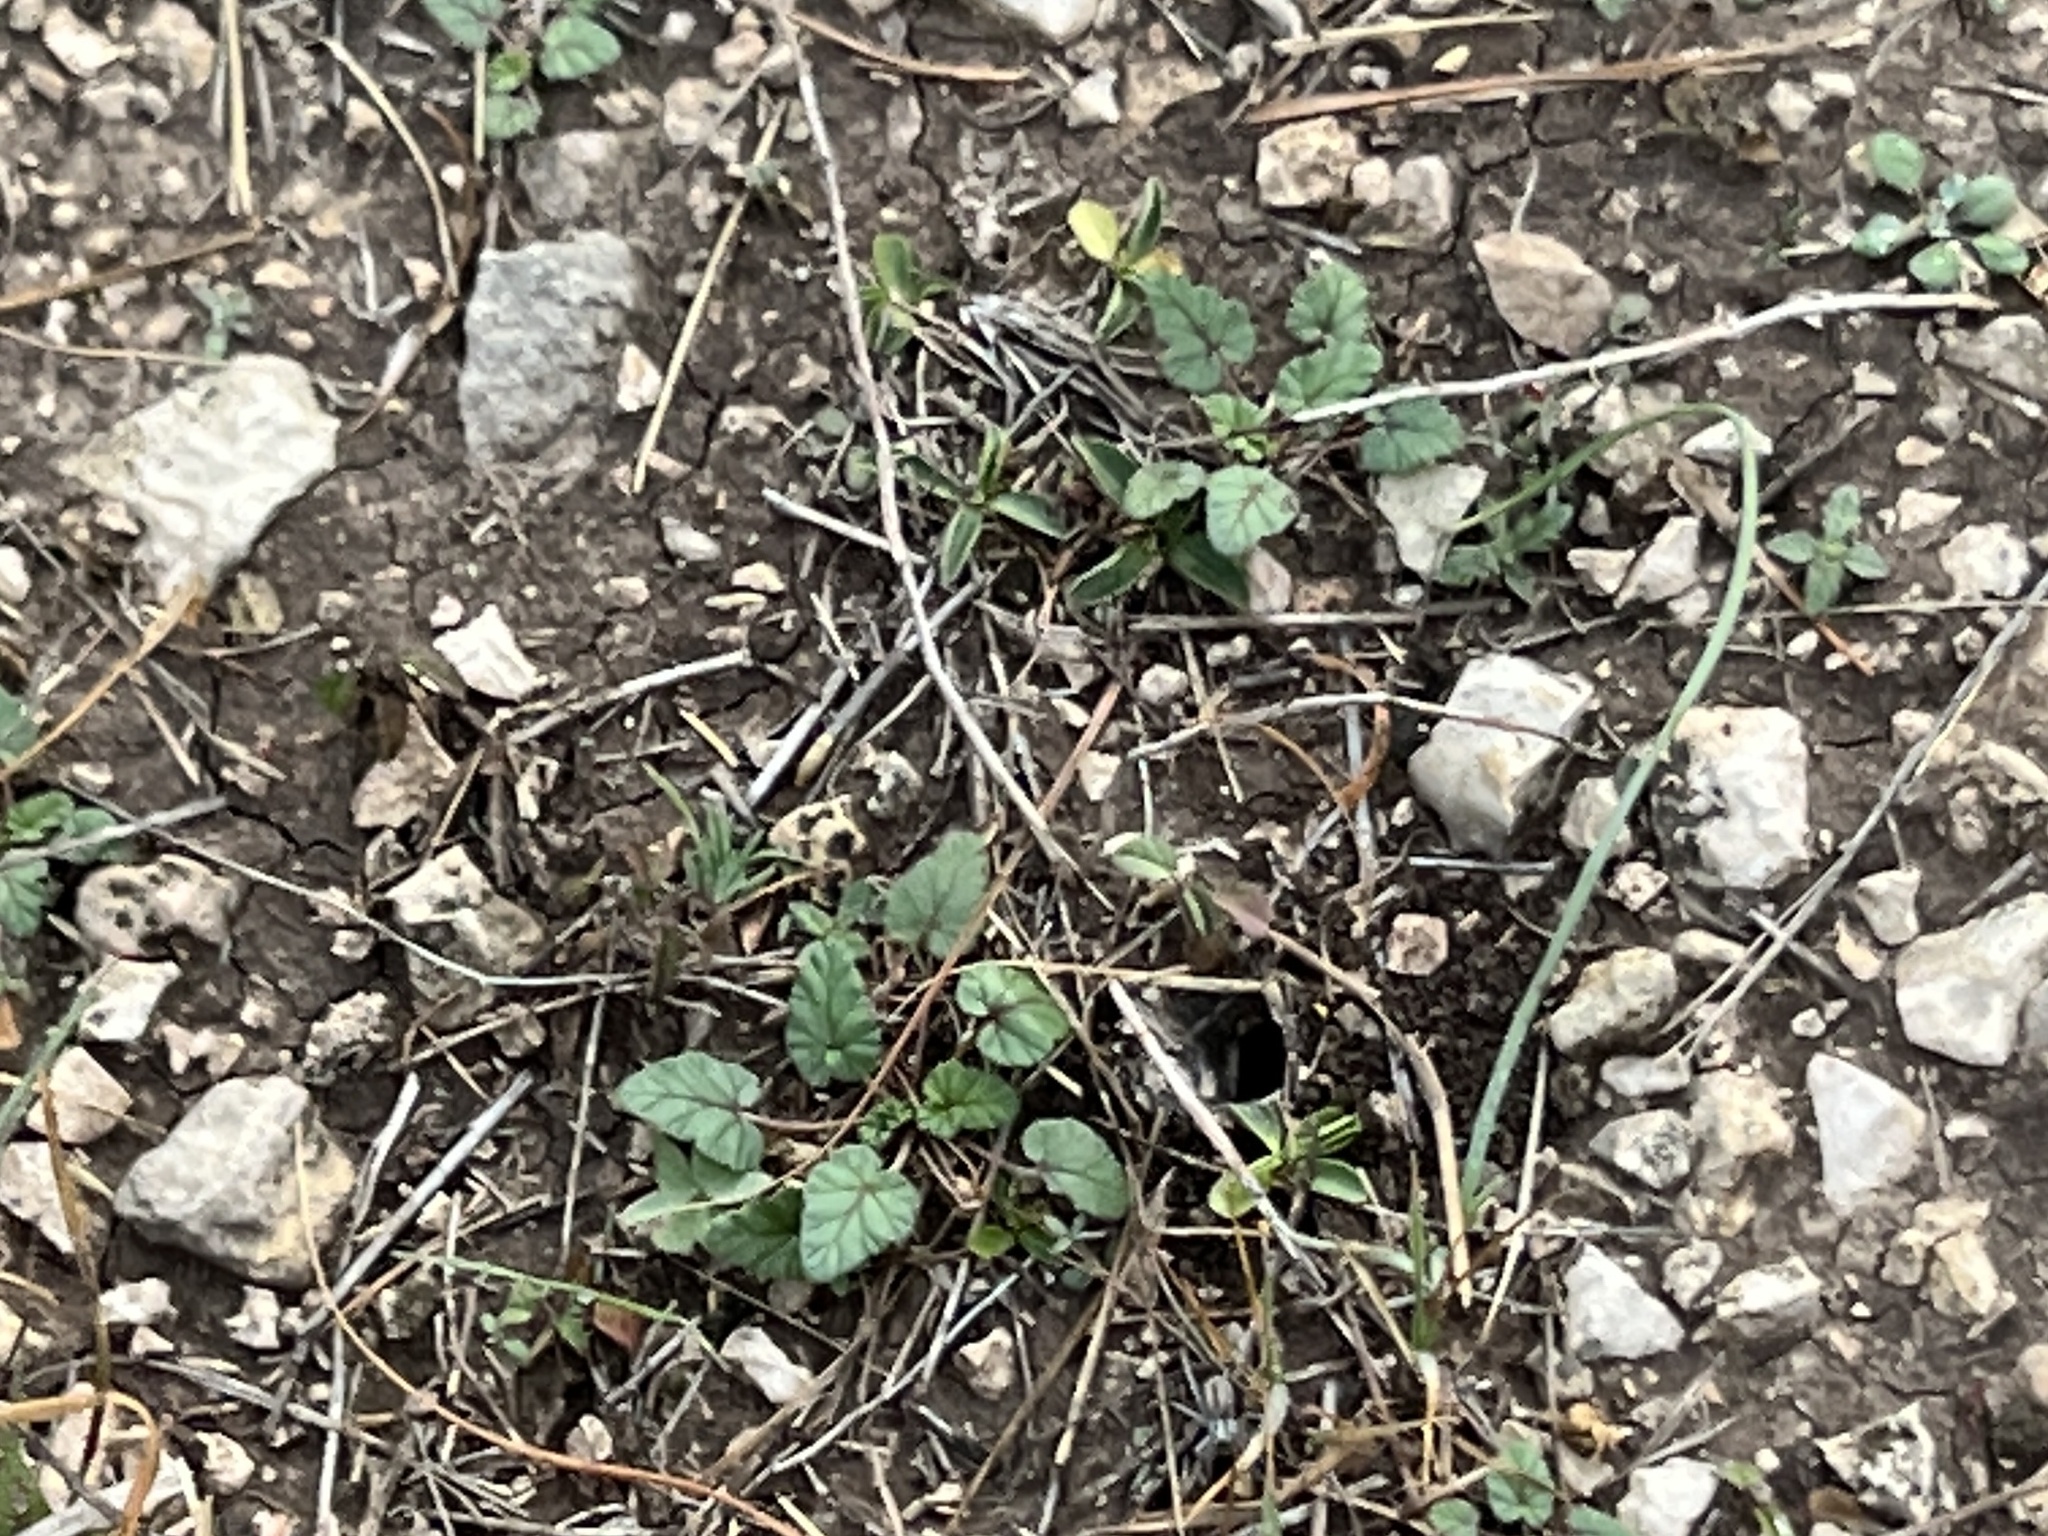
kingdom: Plantae
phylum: Tracheophyta
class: Magnoliopsida
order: Geraniales
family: Geraniaceae
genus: Erodium
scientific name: Erodium texanum
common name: Texas stork's-bill
